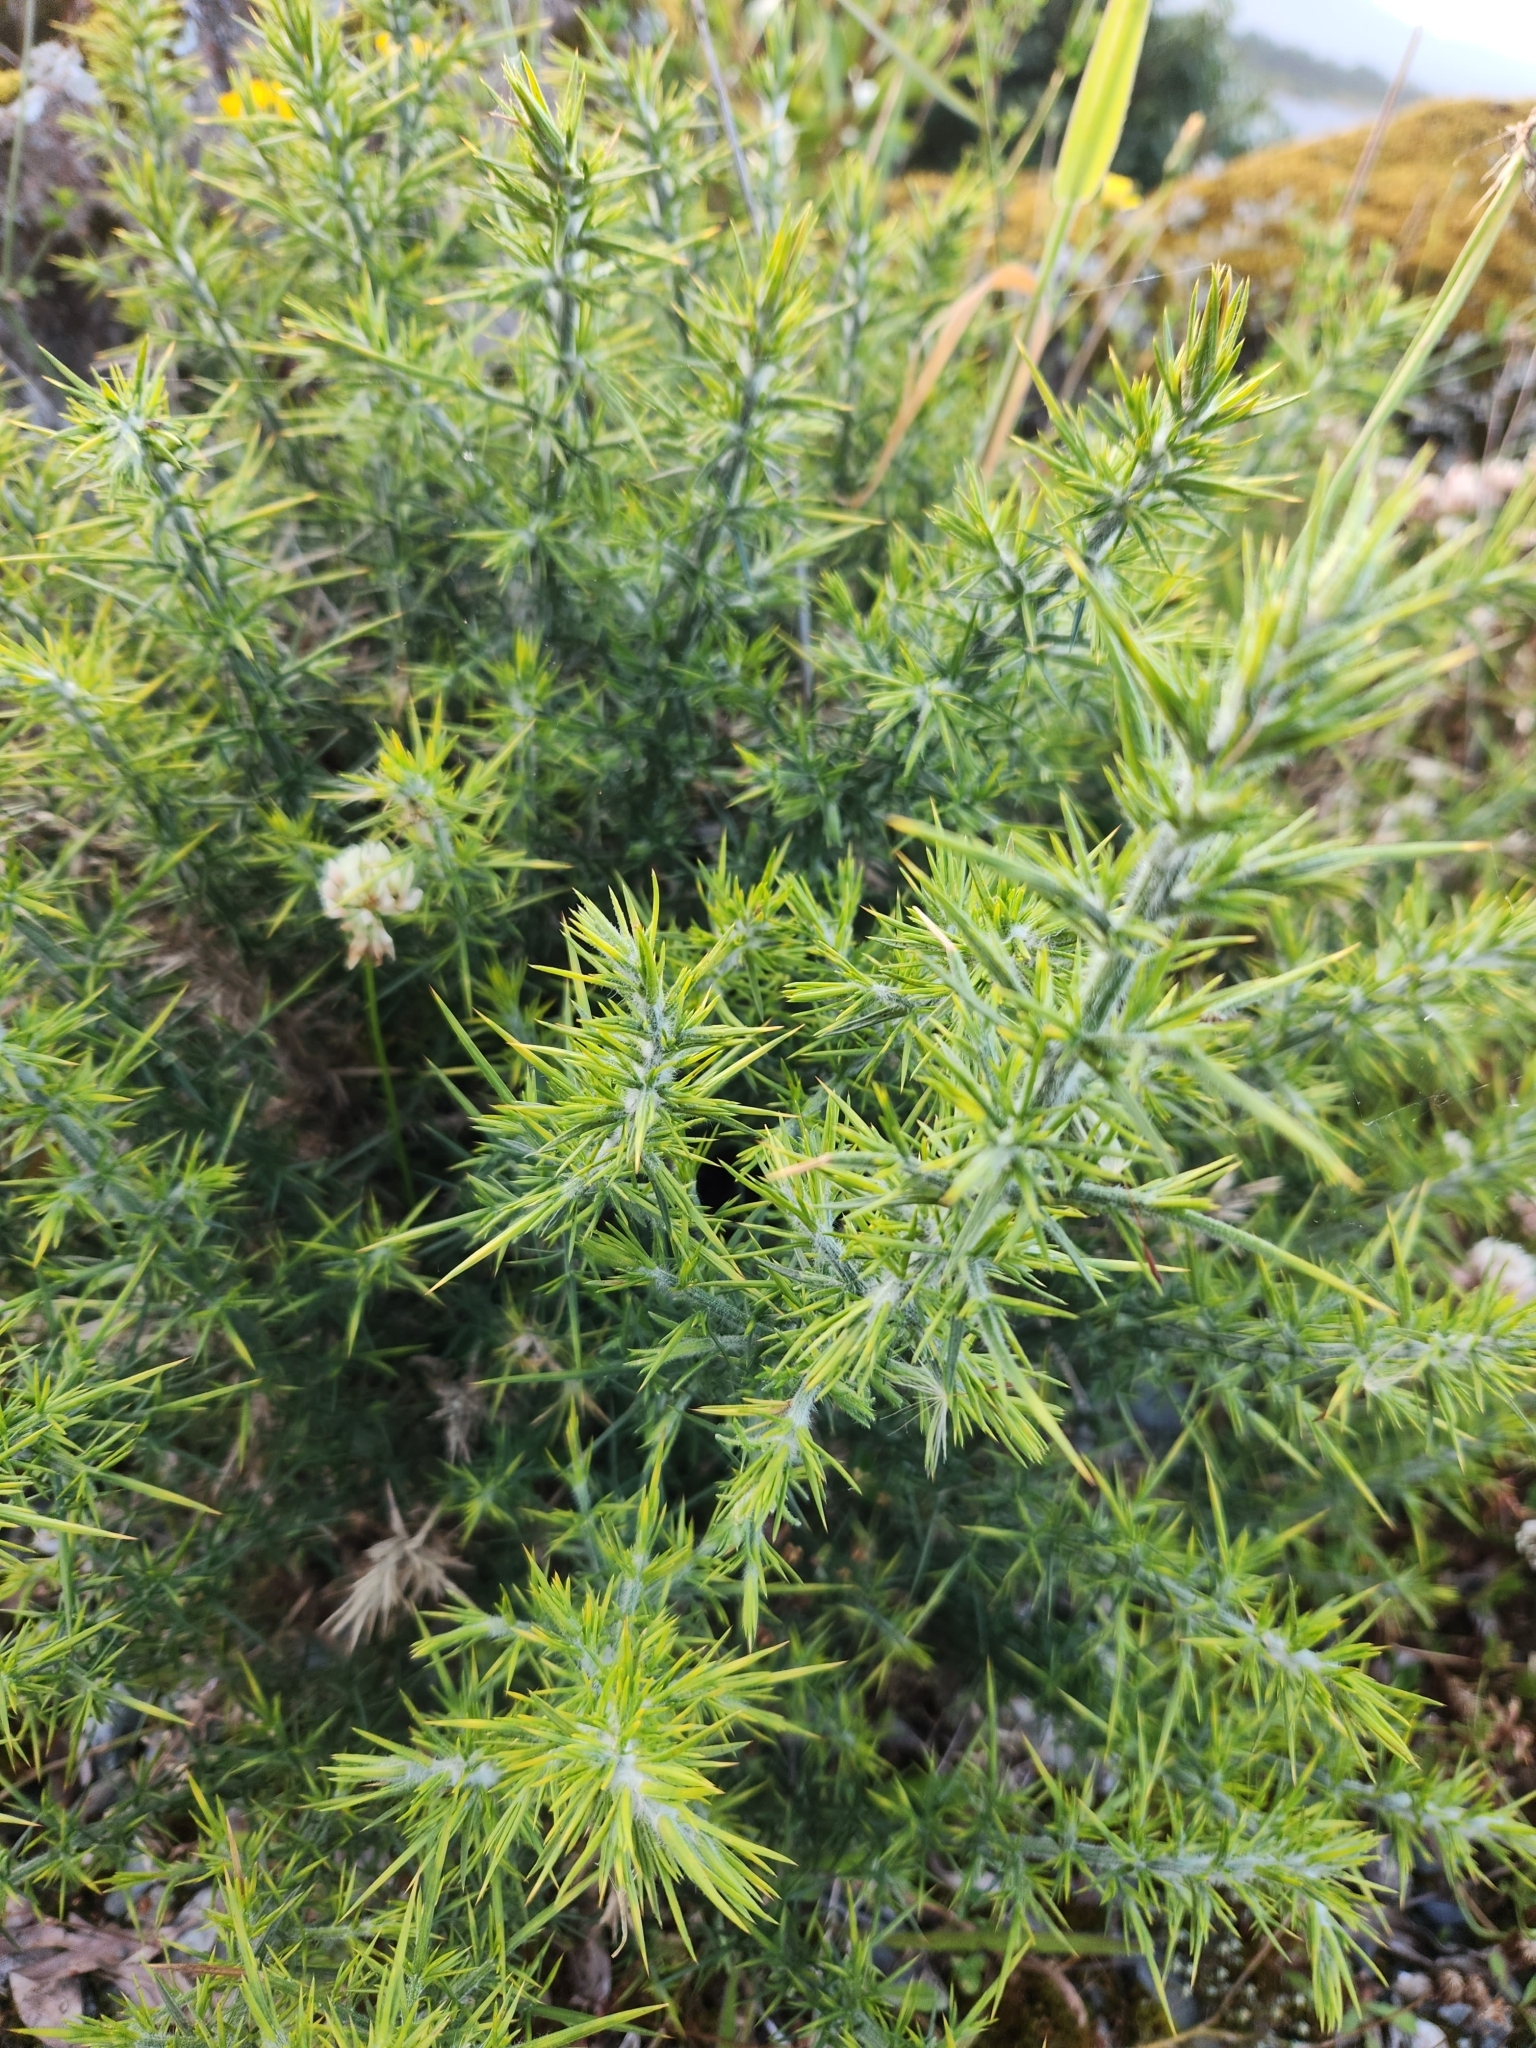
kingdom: Plantae
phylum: Tracheophyta
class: Magnoliopsida
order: Fabales
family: Fabaceae
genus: Ulex
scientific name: Ulex europaeus
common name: Common gorse
